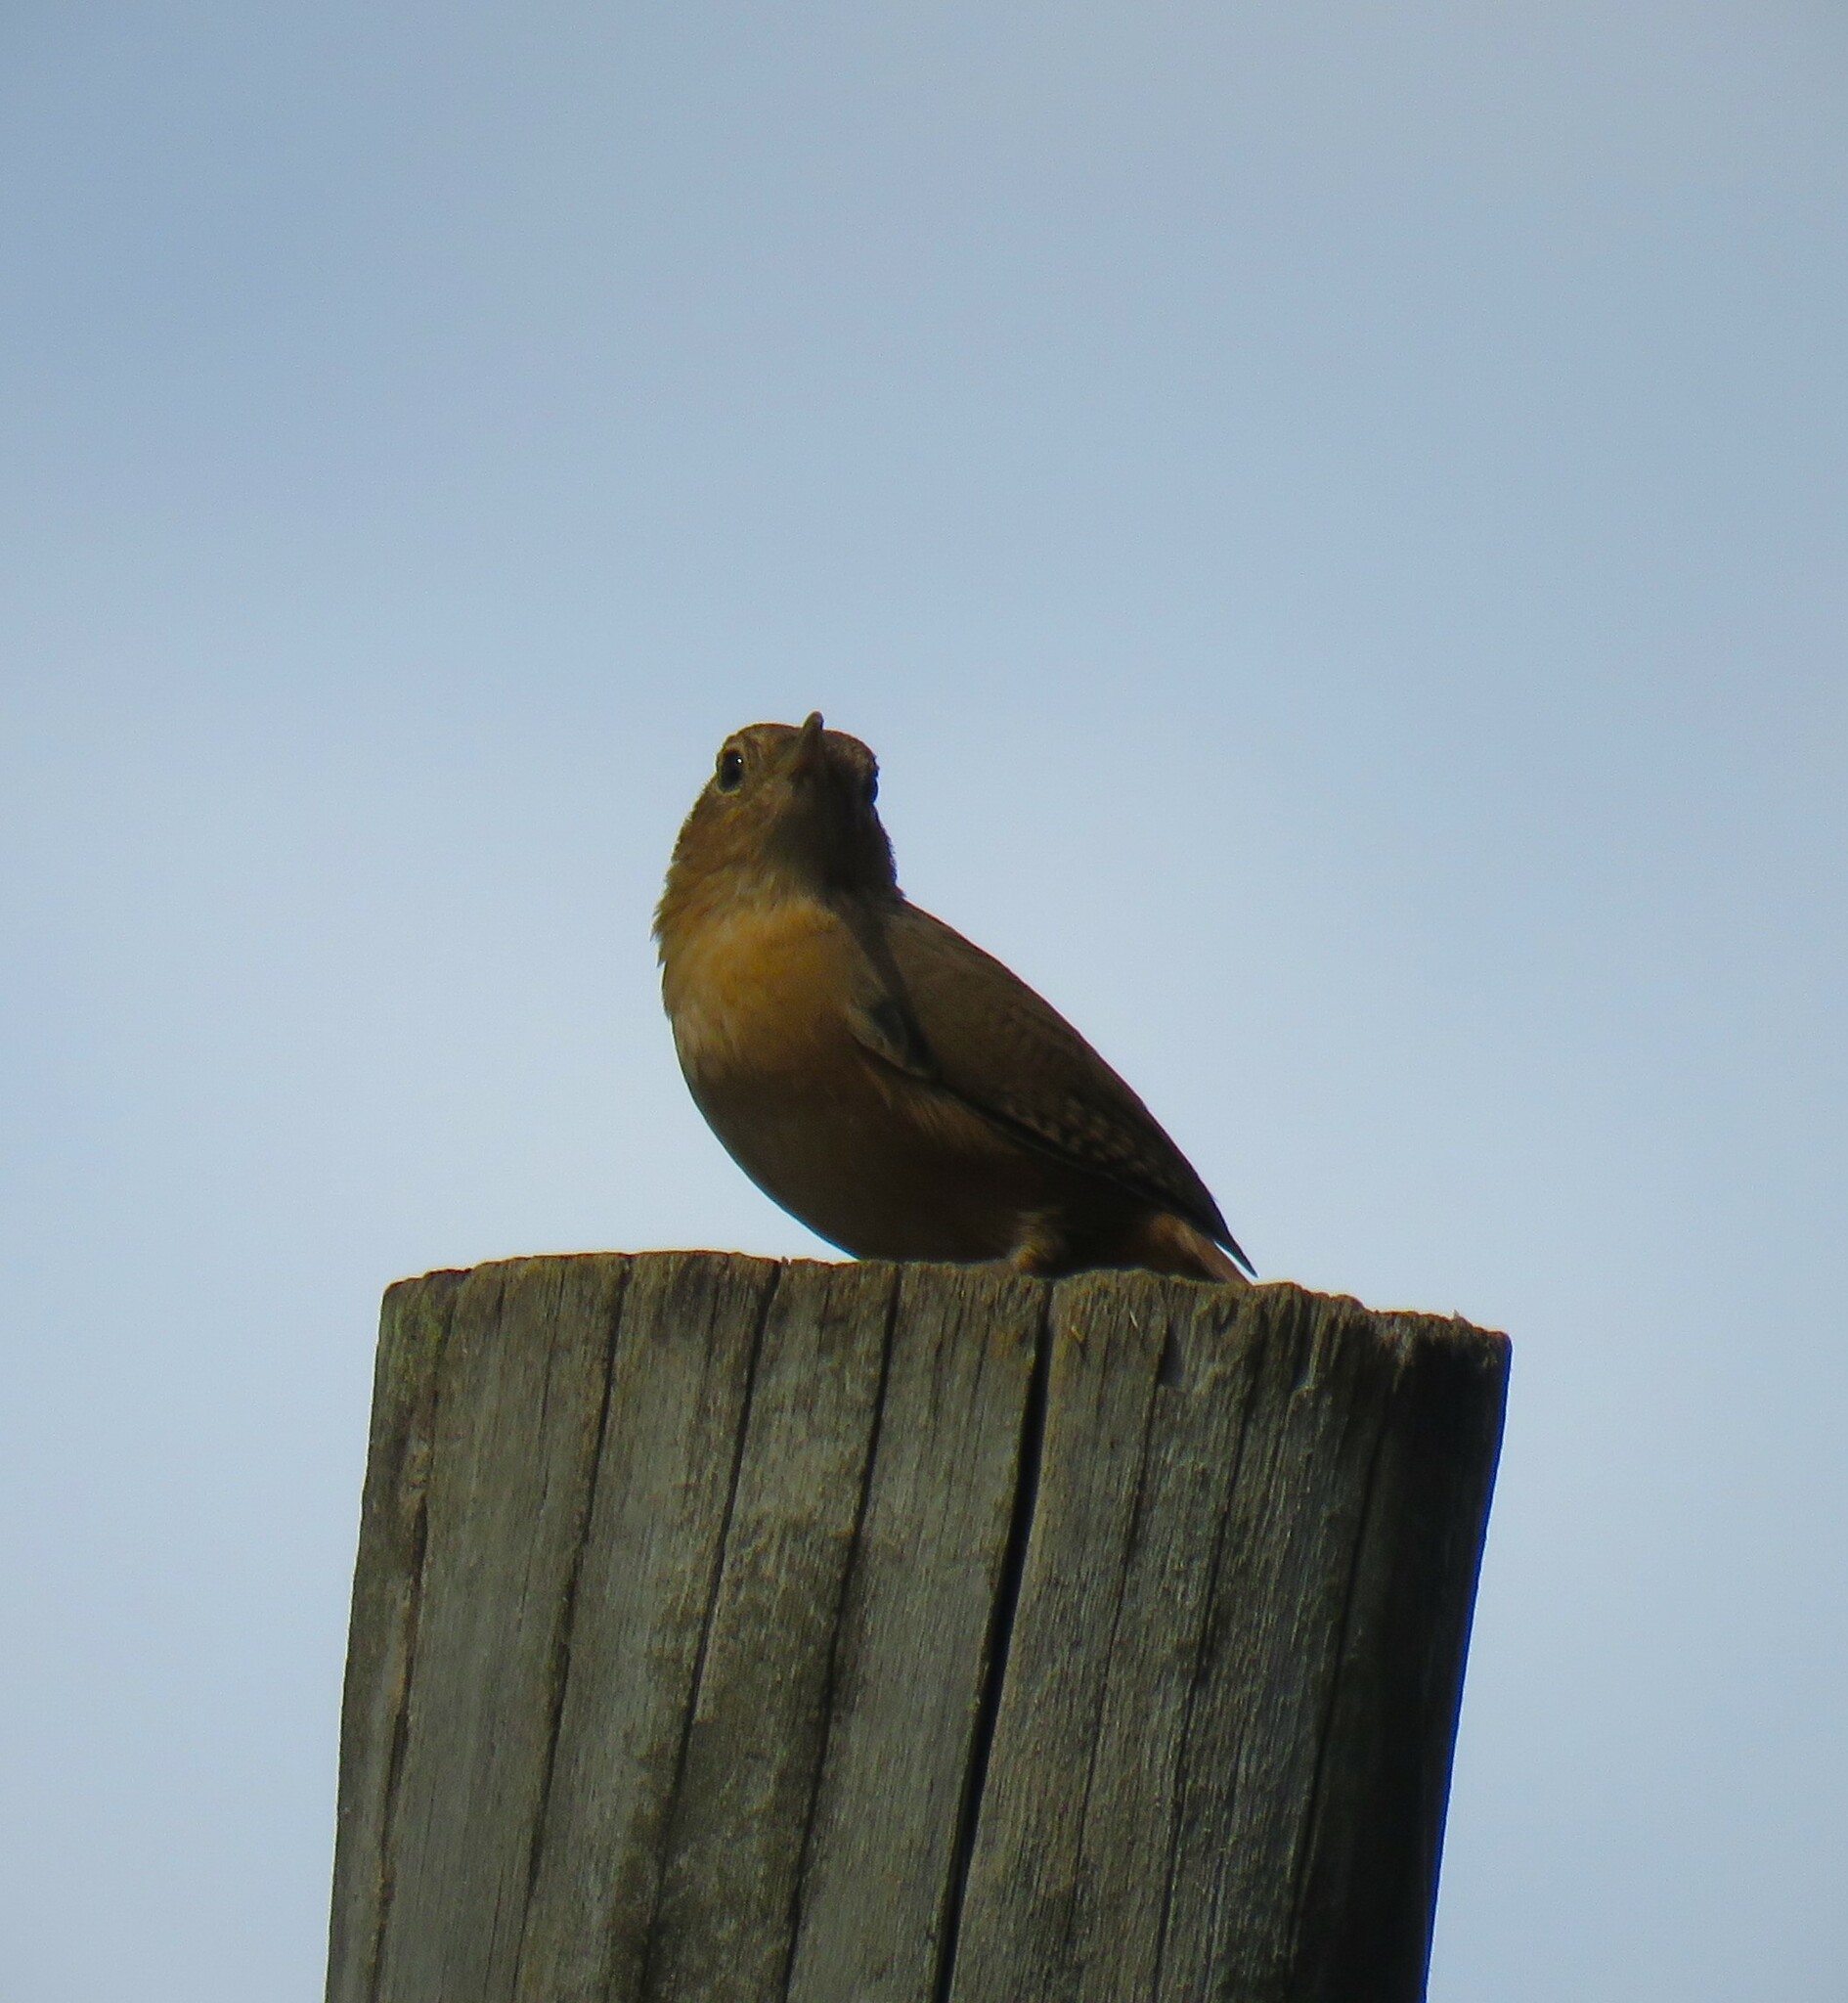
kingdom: Animalia
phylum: Chordata
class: Aves
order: Passeriformes
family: Troglodytidae
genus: Troglodytes
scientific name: Troglodytes aedon
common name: House wren
